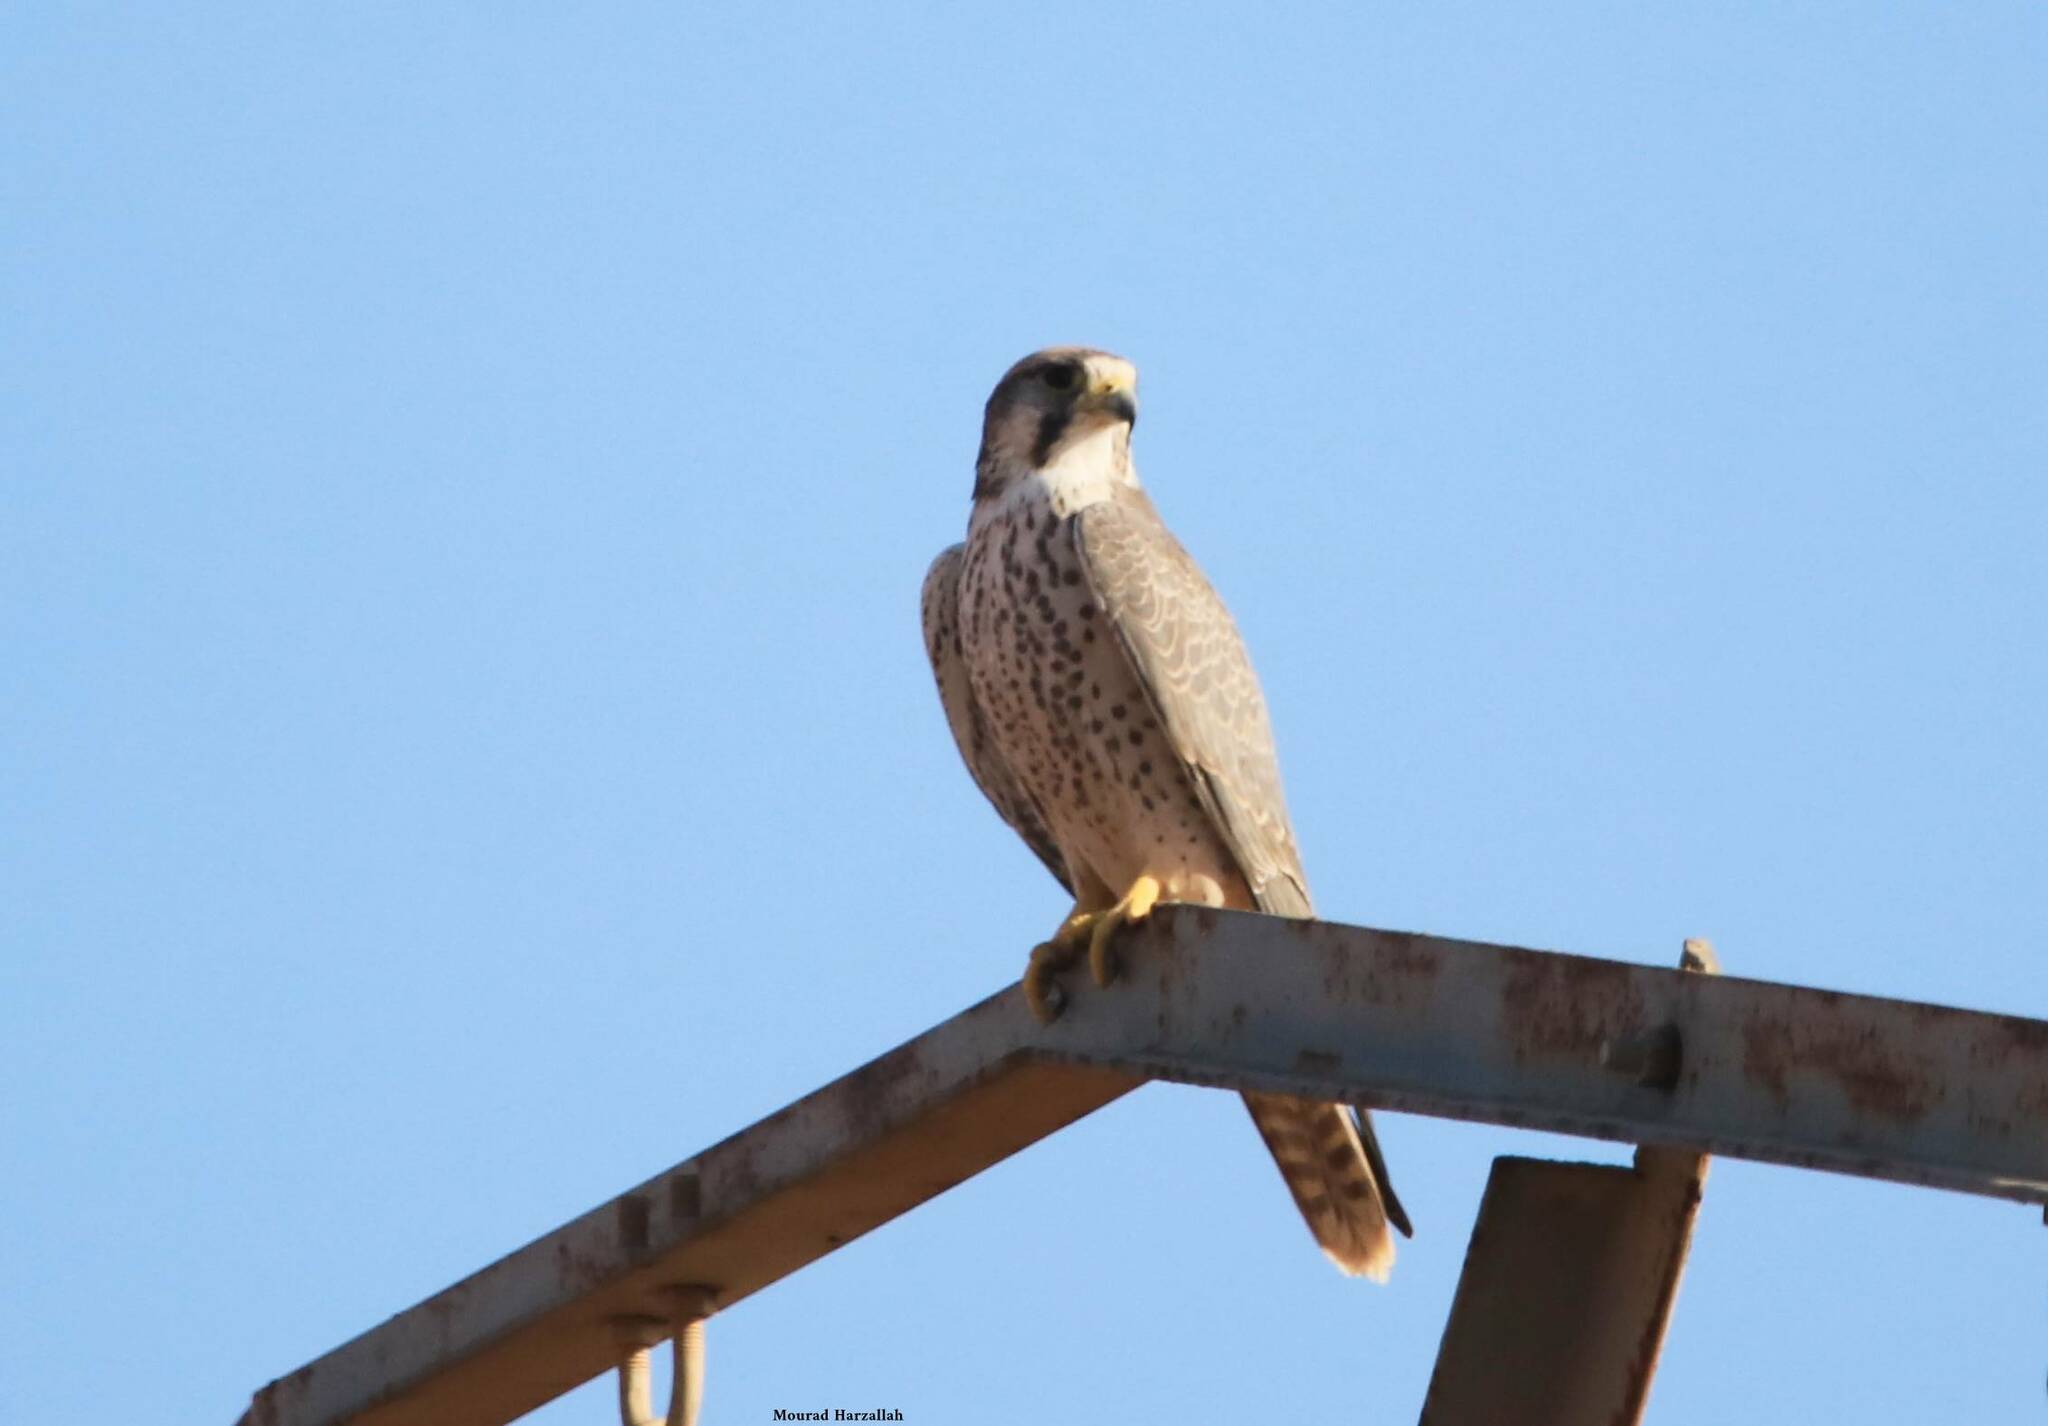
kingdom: Animalia
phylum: Chordata
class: Aves
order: Falconiformes
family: Falconidae
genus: Falco
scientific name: Falco biarmicus
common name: Lanner falcon
